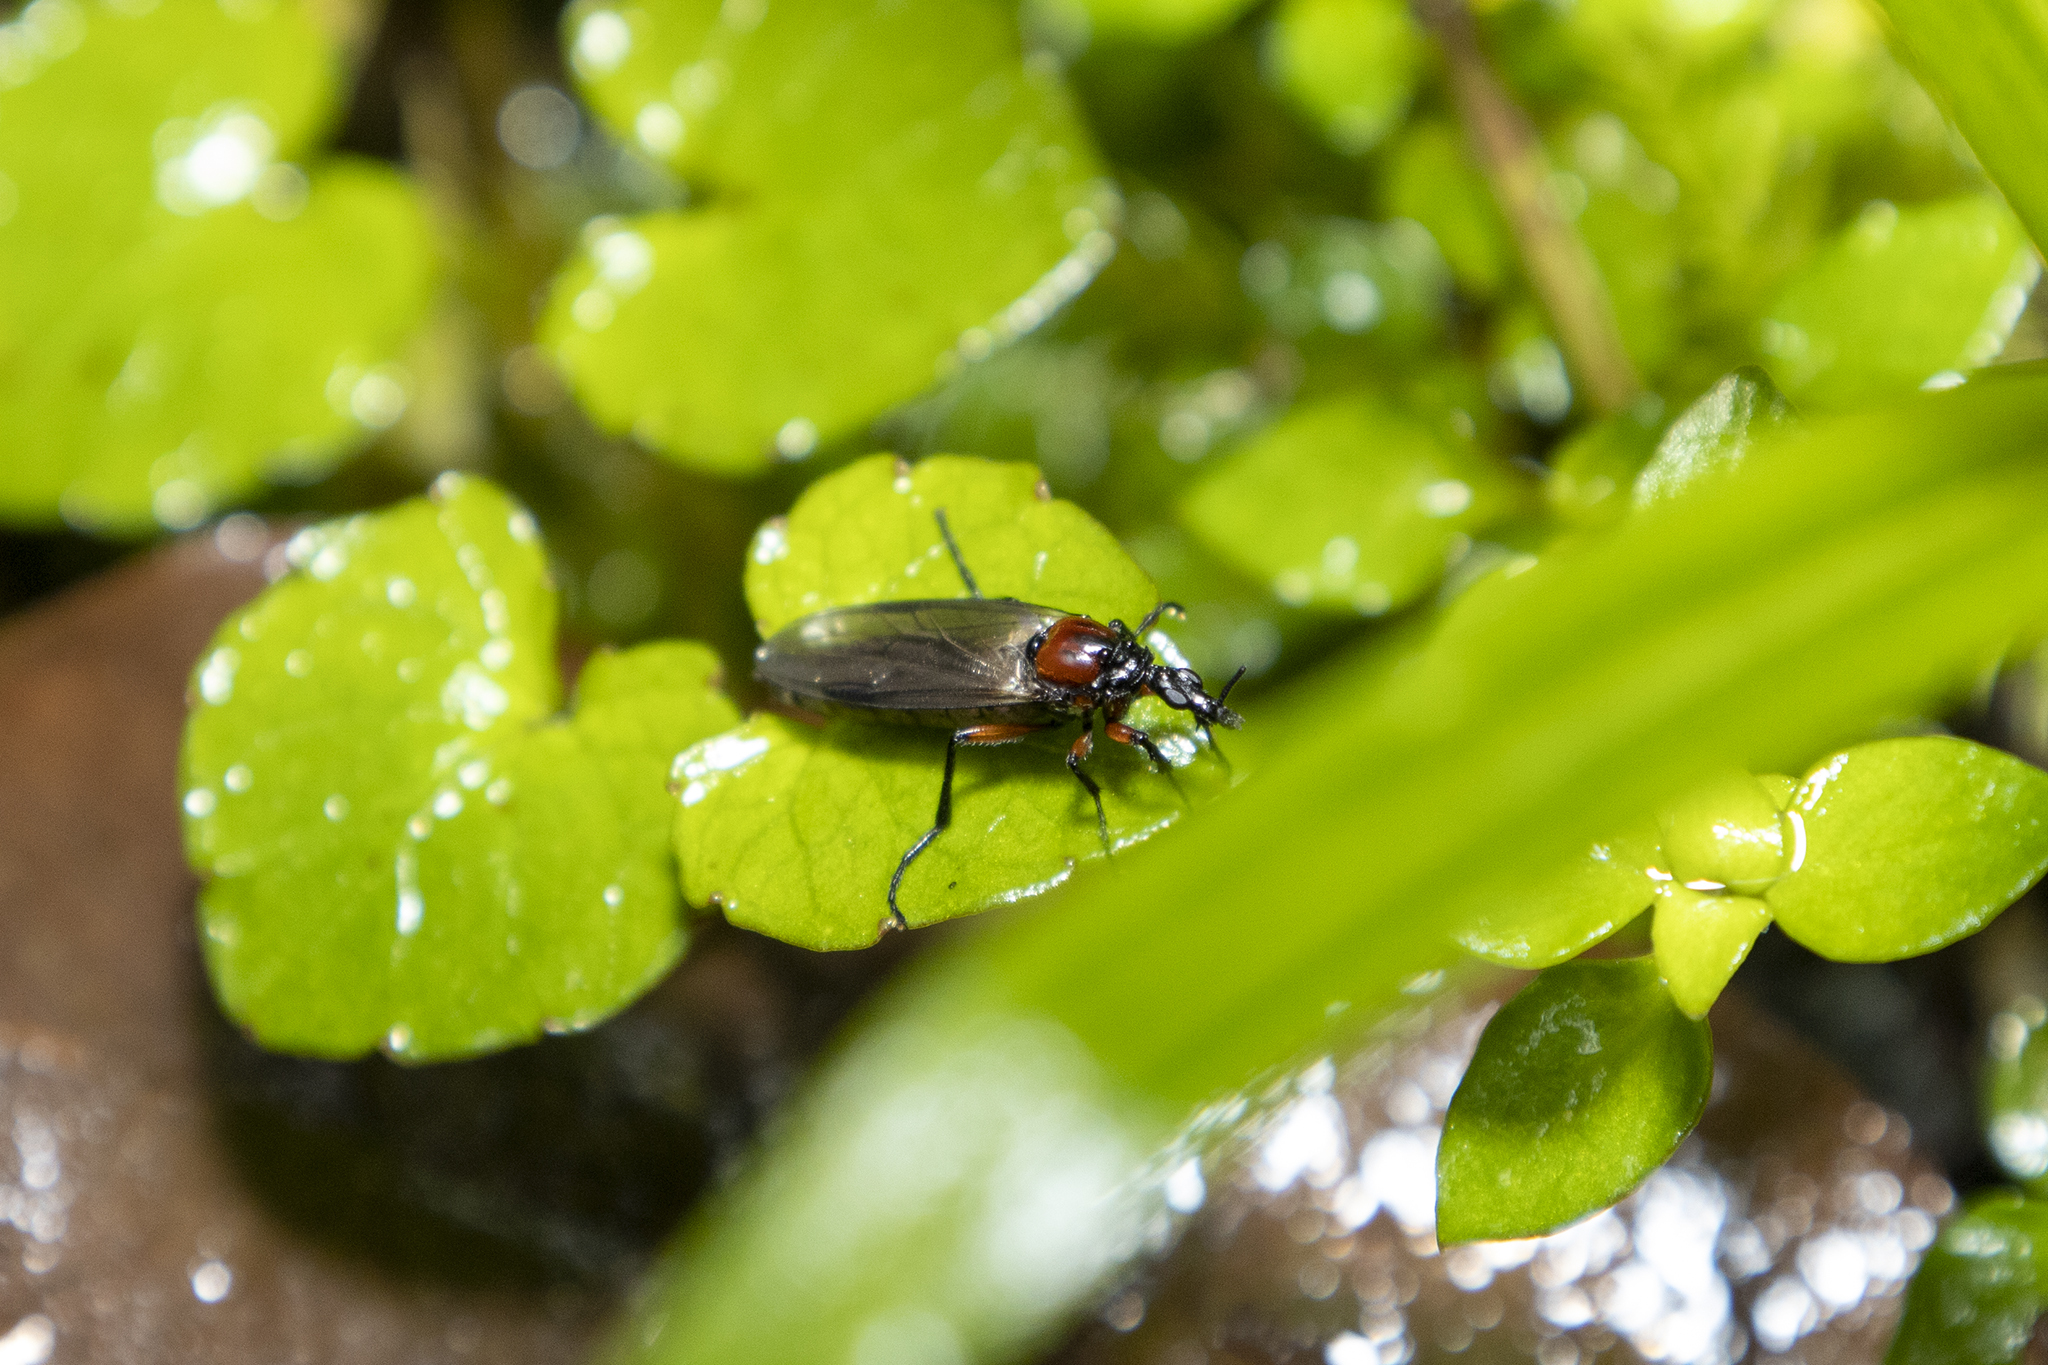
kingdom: Animalia
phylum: Arthropoda
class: Insecta
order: Diptera
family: Bibionidae
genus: Dilophus
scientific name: Dilophus nigrostigma
